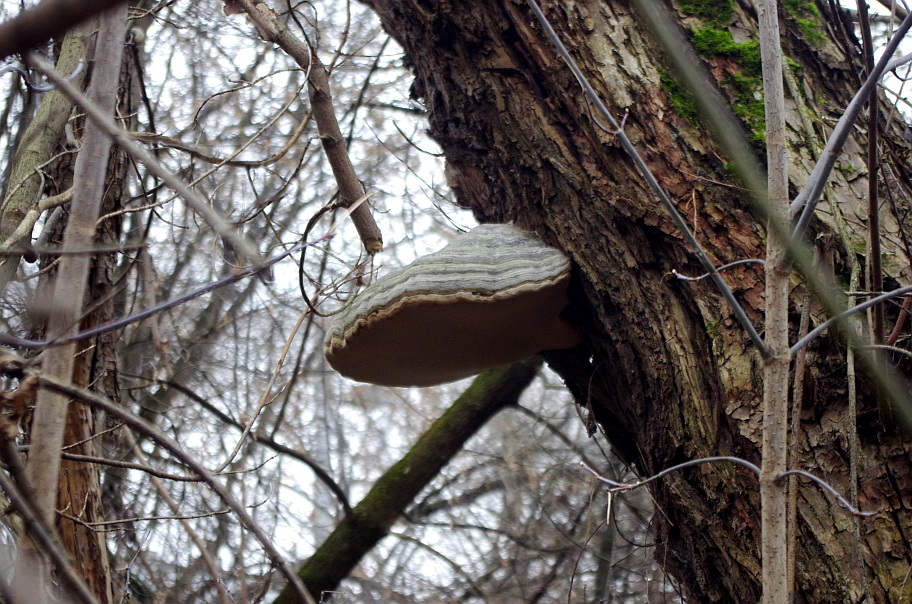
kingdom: Fungi
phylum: Basidiomycota
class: Agaricomycetes
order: Polyporales
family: Polyporaceae
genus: Fomes
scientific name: Fomes fomentarius
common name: Hoof fungus
